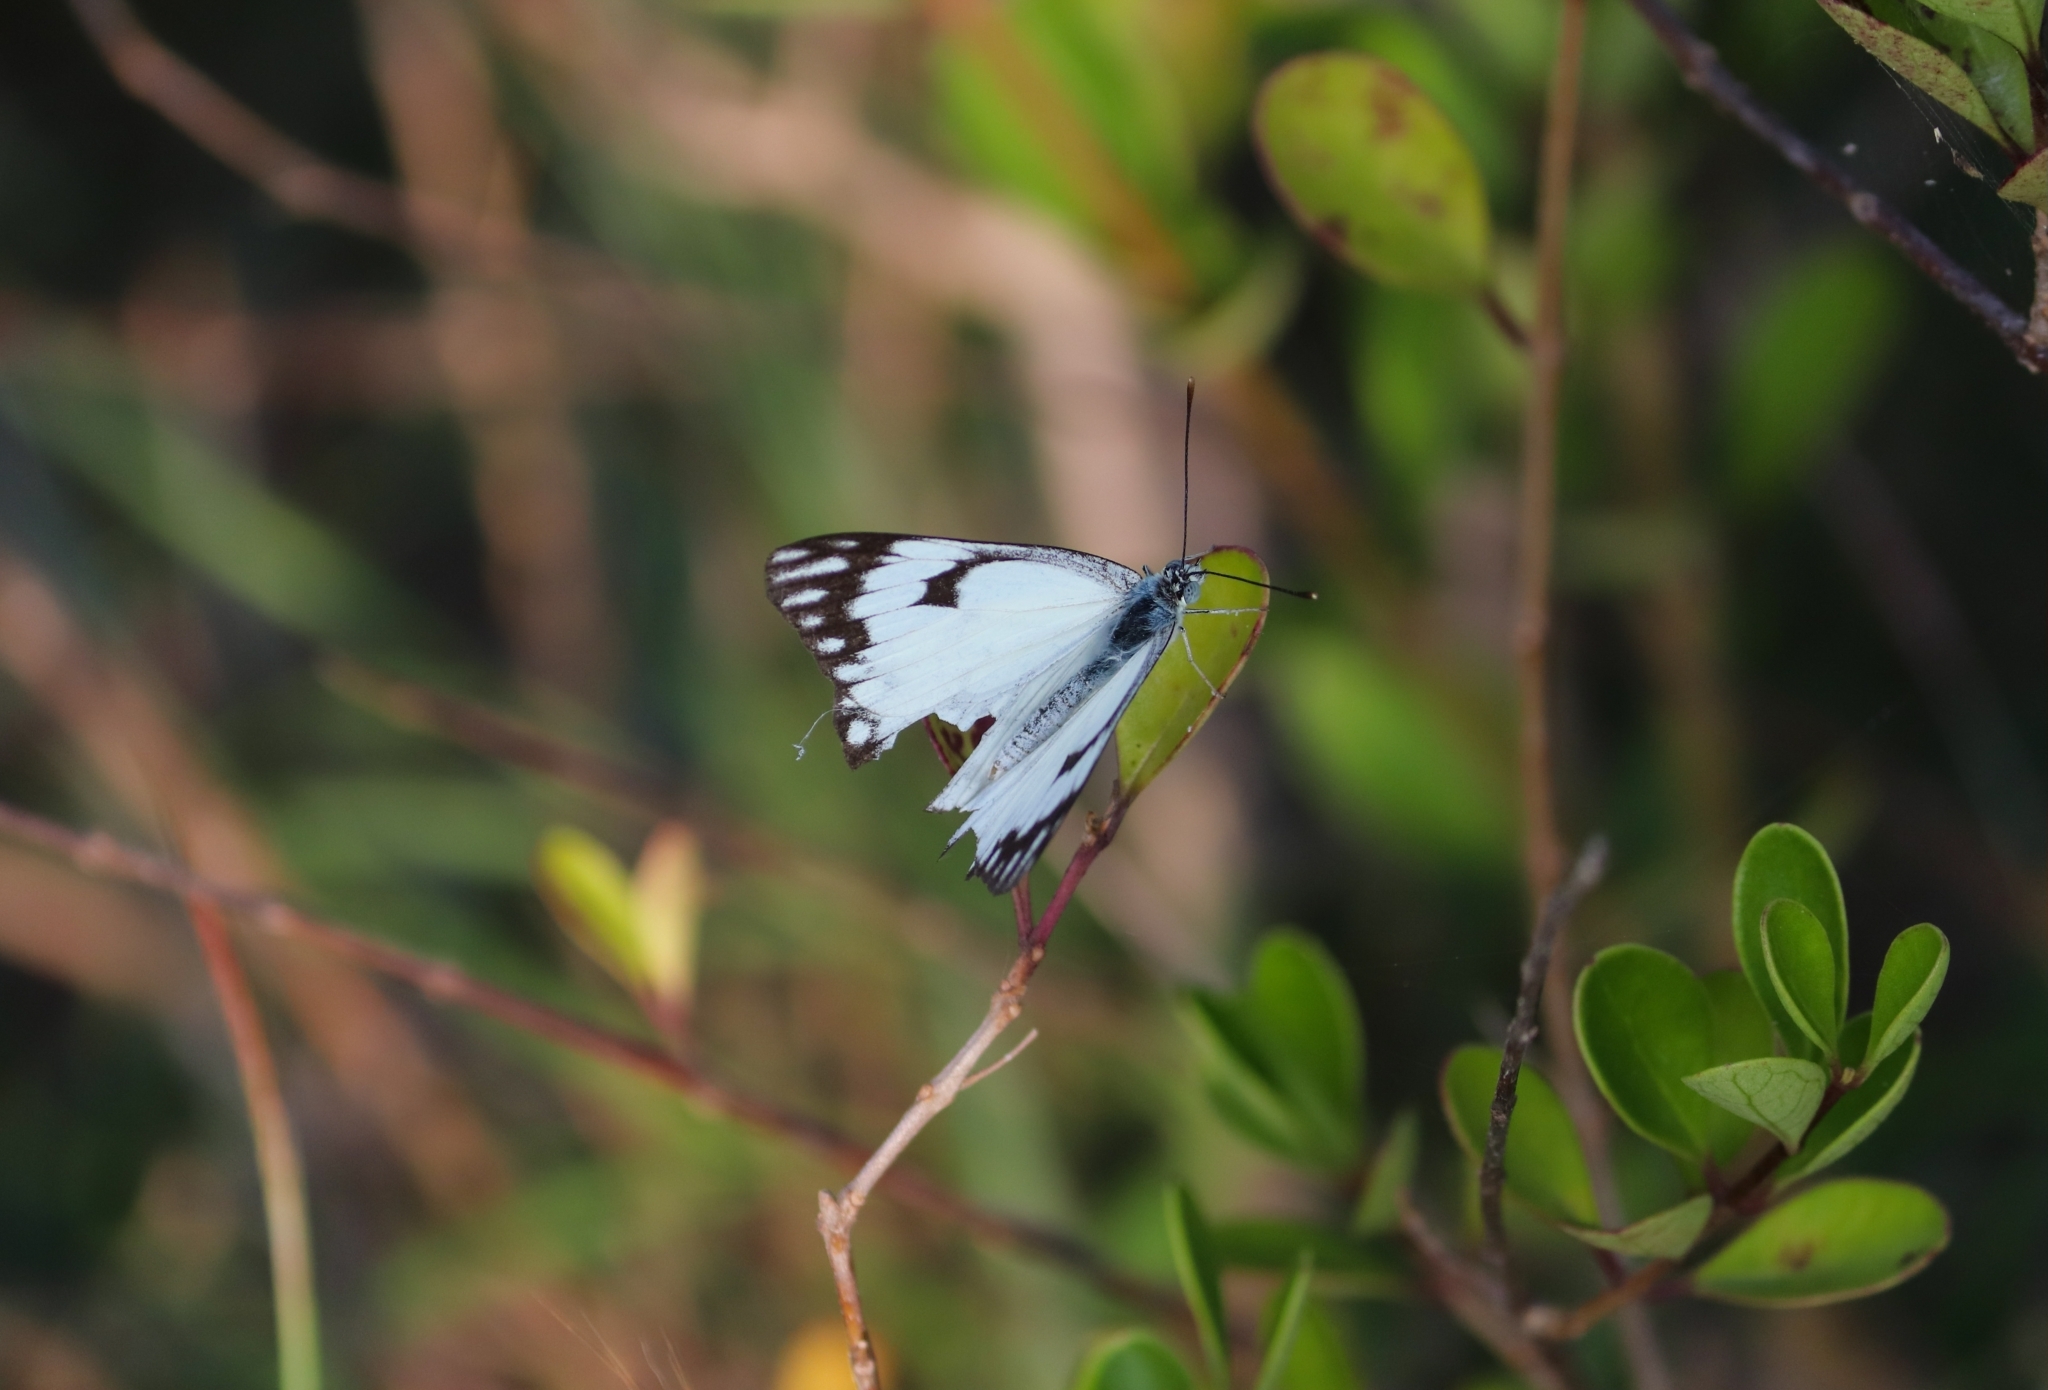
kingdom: Animalia
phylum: Arthropoda
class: Insecta
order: Lepidoptera
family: Pieridae
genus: Belenois
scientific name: Belenois aurota
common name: Brown-veined white
